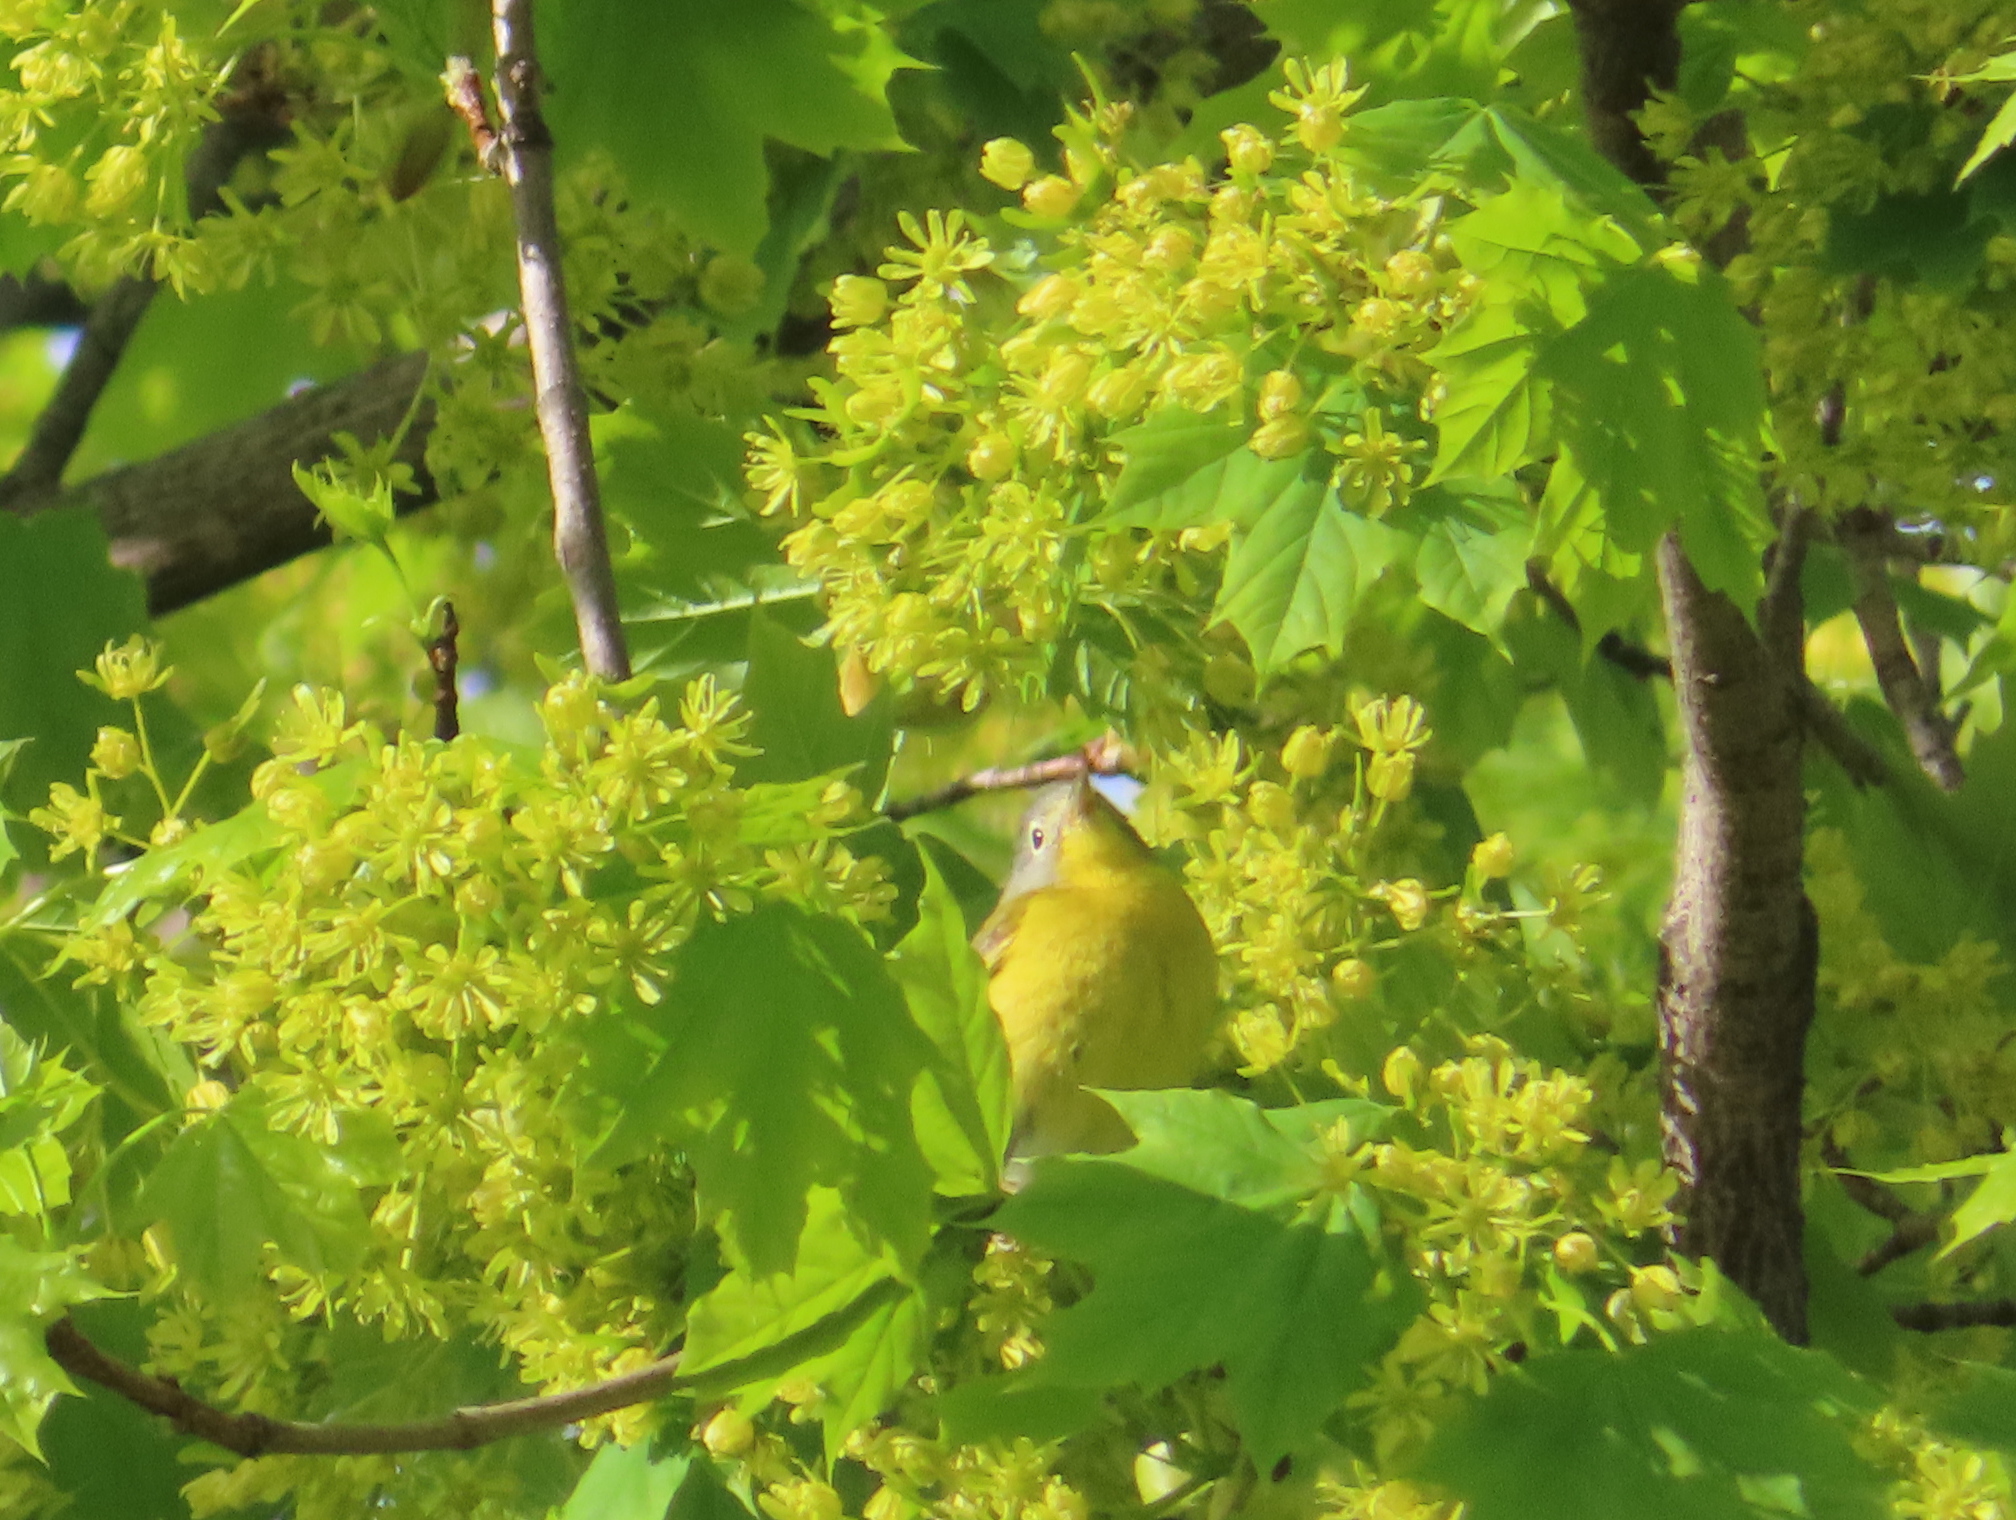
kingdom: Animalia
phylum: Chordata
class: Aves
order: Passeriformes
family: Parulidae
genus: Leiothlypis
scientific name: Leiothlypis ruficapilla
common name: Nashville warbler
